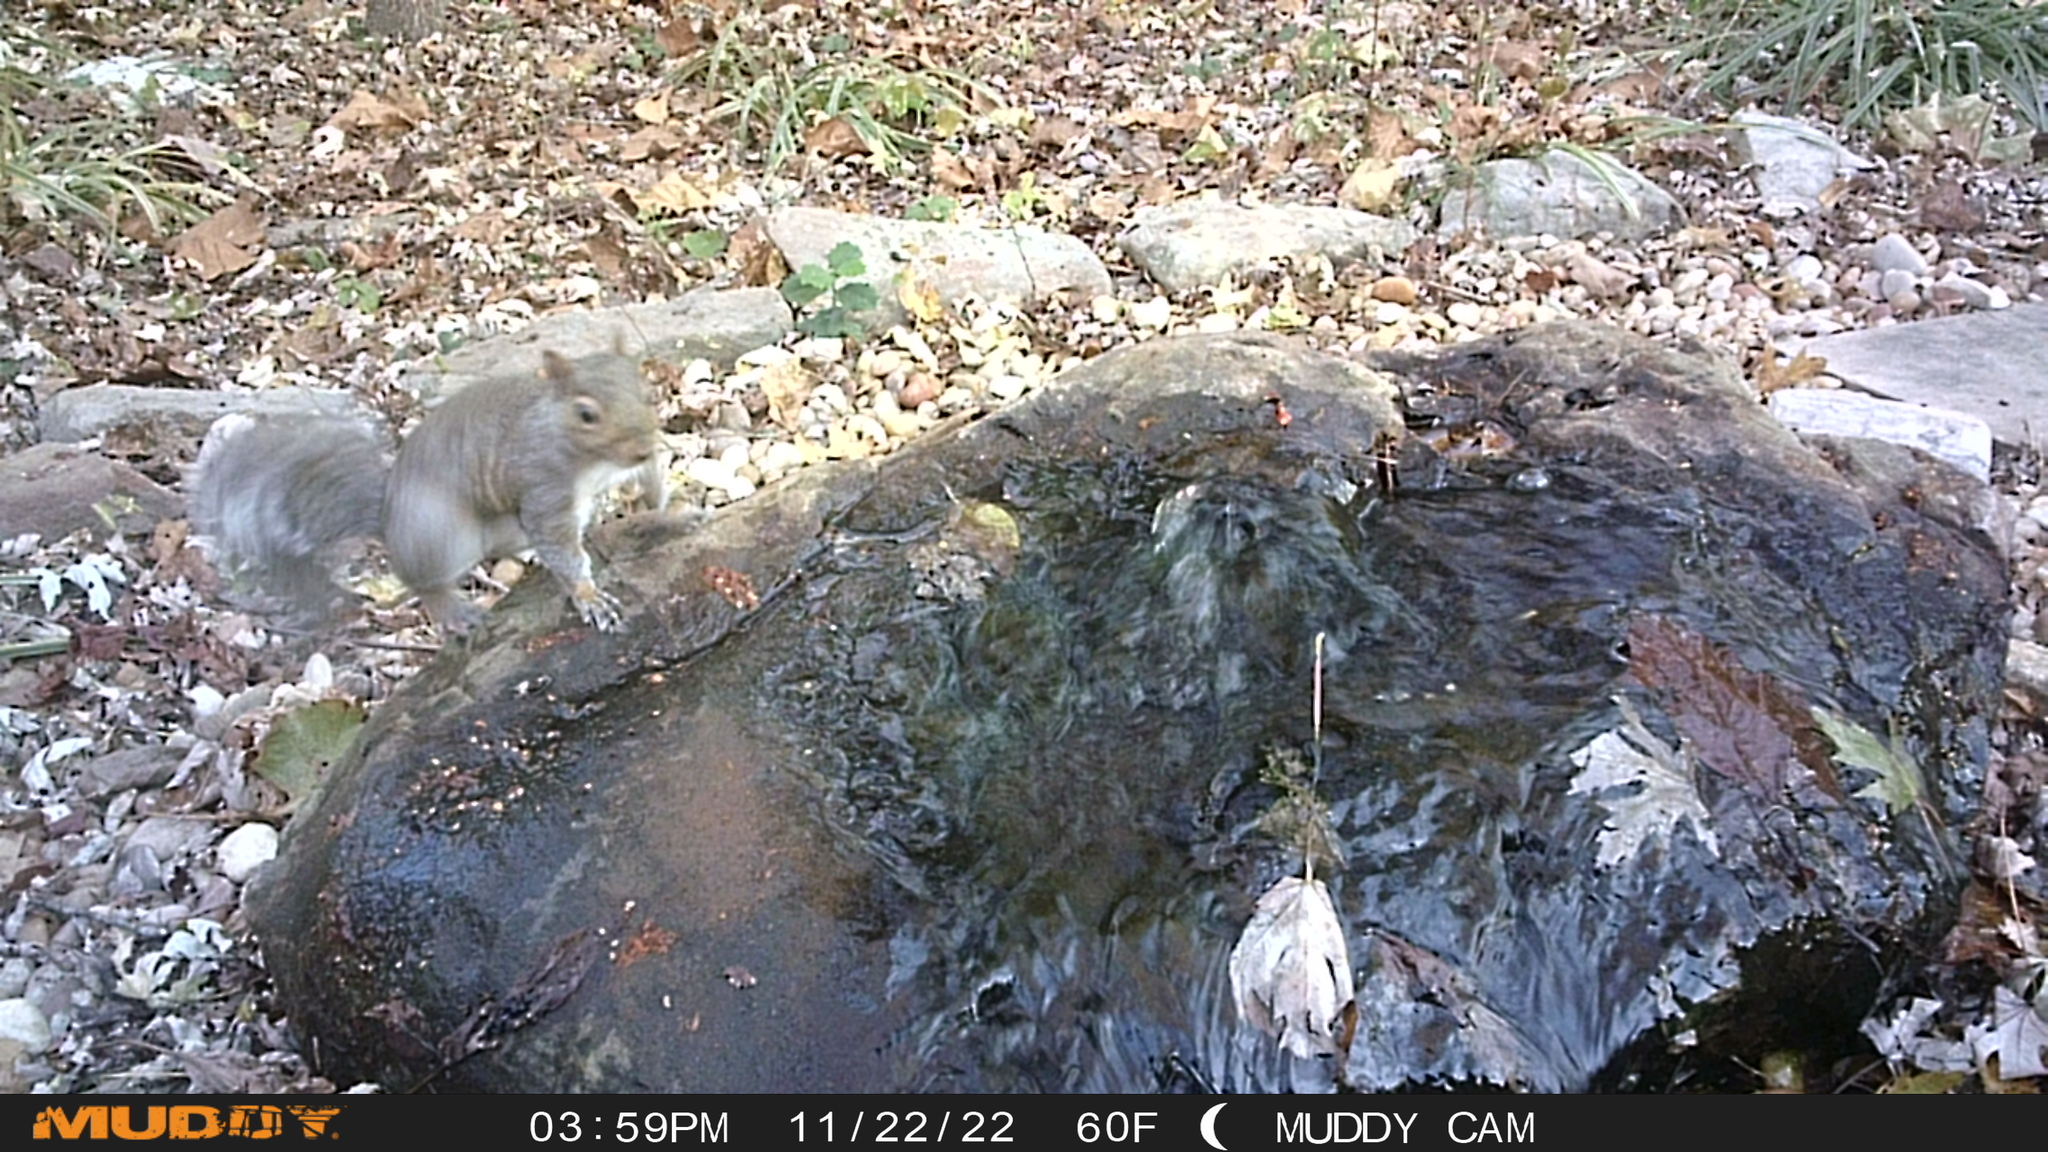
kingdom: Animalia
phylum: Chordata
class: Mammalia
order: Rodentia
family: Sciuridae
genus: Sciurus
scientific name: Sciurus carolinensis
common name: Eastern gray squirrel
